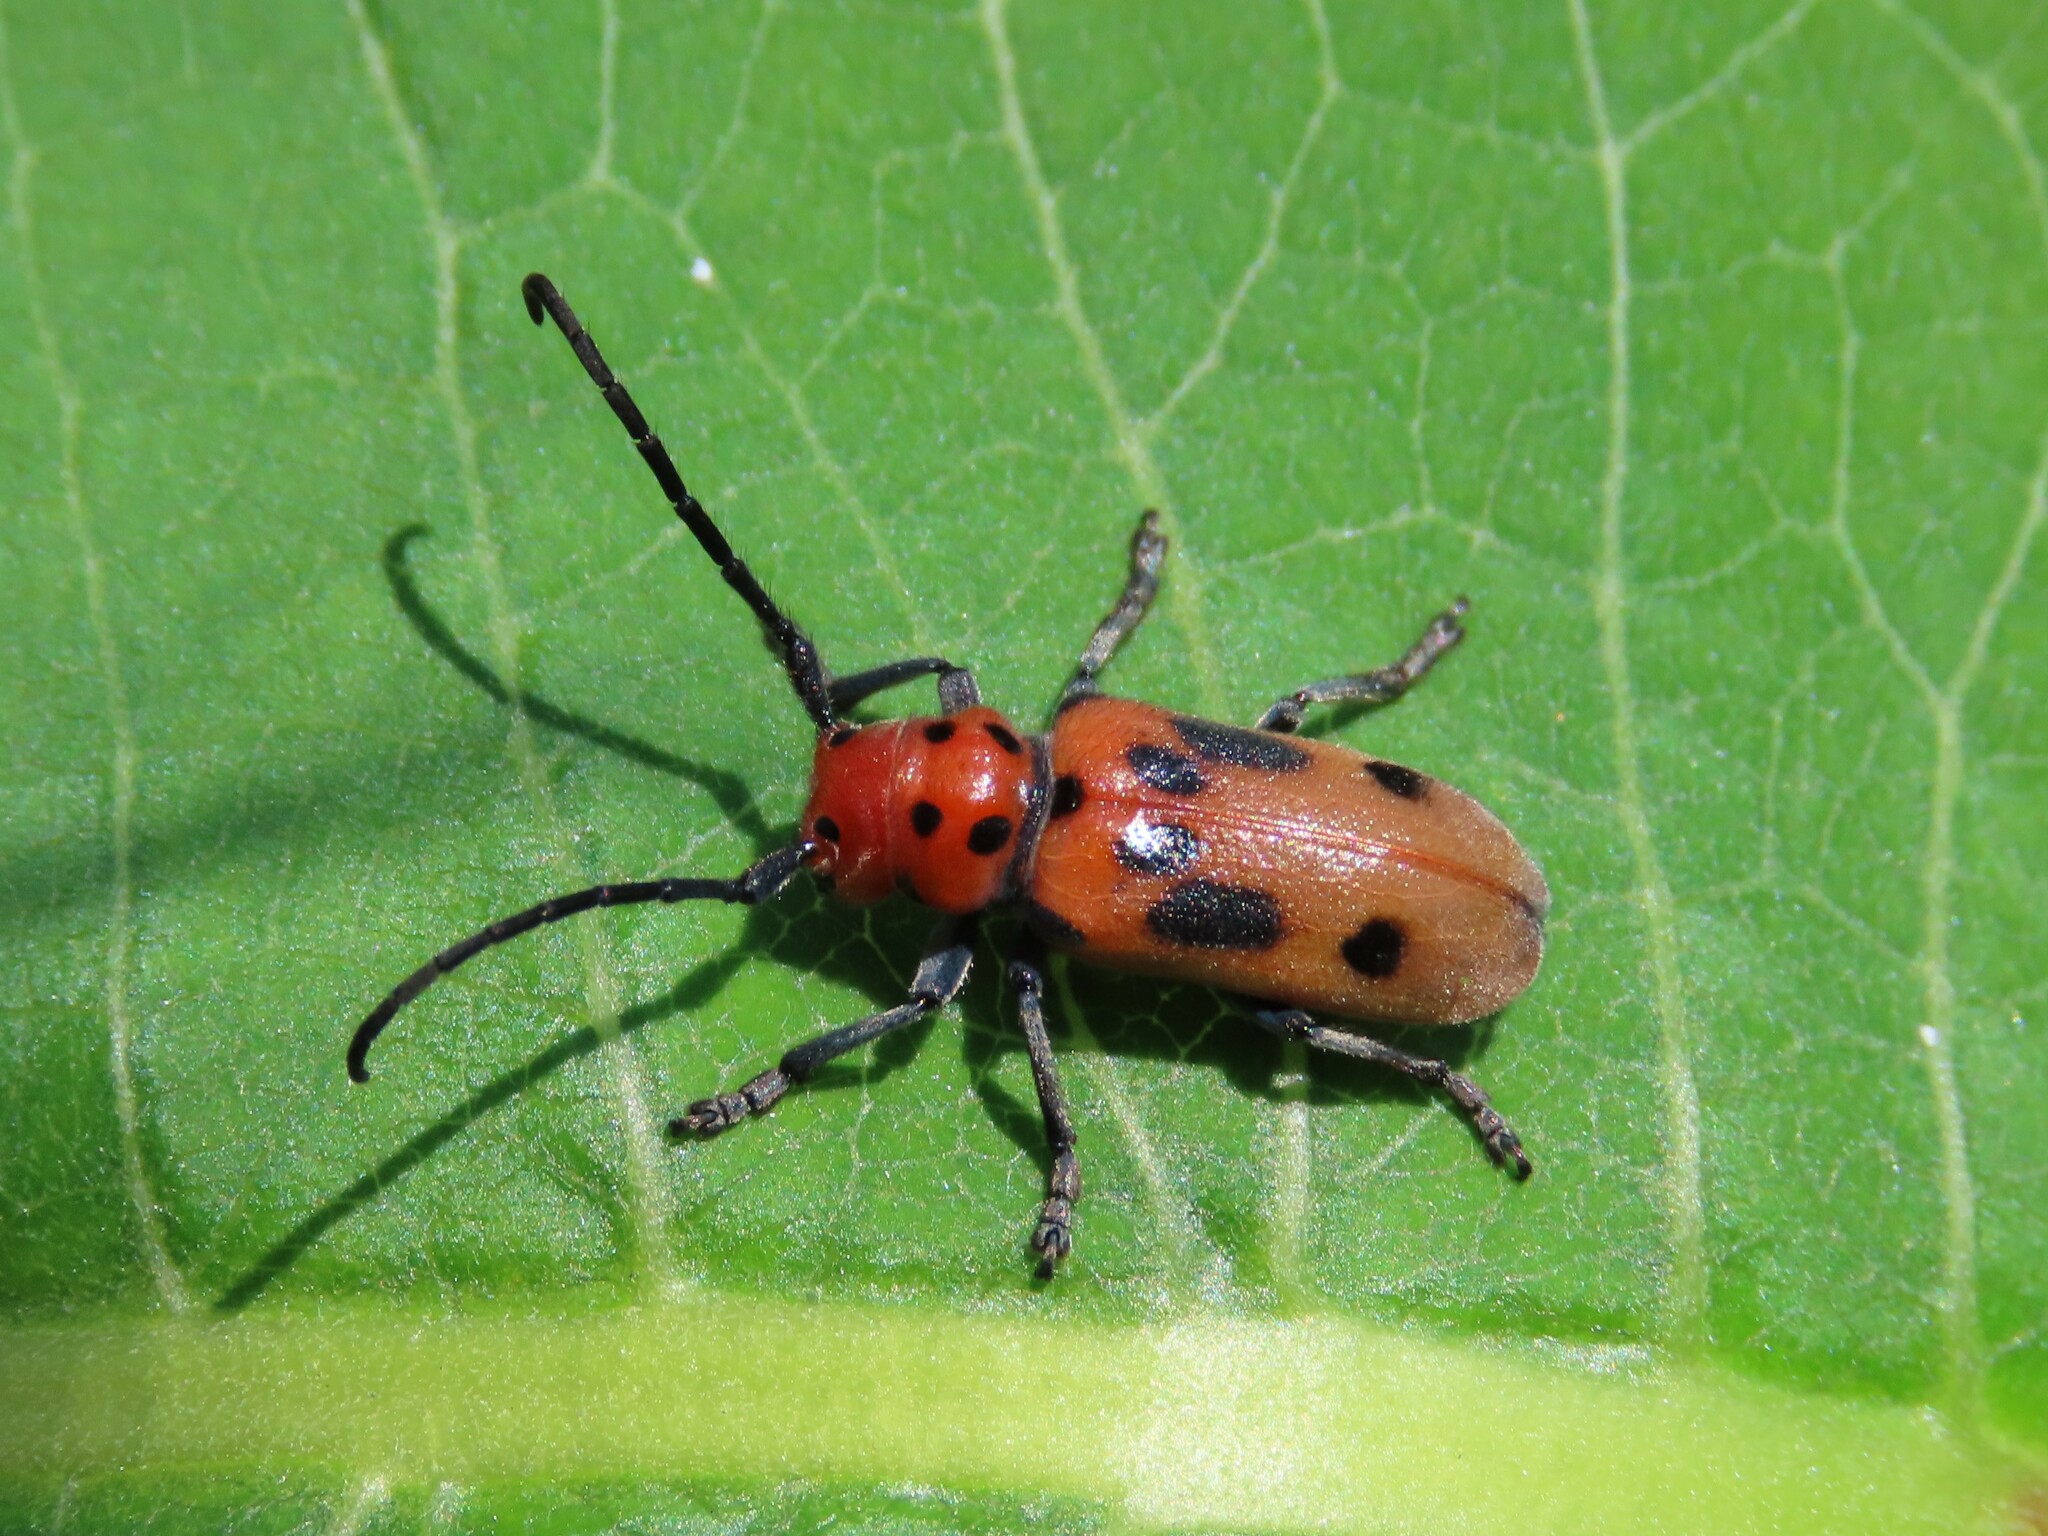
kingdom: Animalia
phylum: Arthropoda
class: Insecta
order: Coleoptera
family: Cerambycidae
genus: Tetraopes
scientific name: Tetraopes tetrophthalmus
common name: Red milkweed beetle
